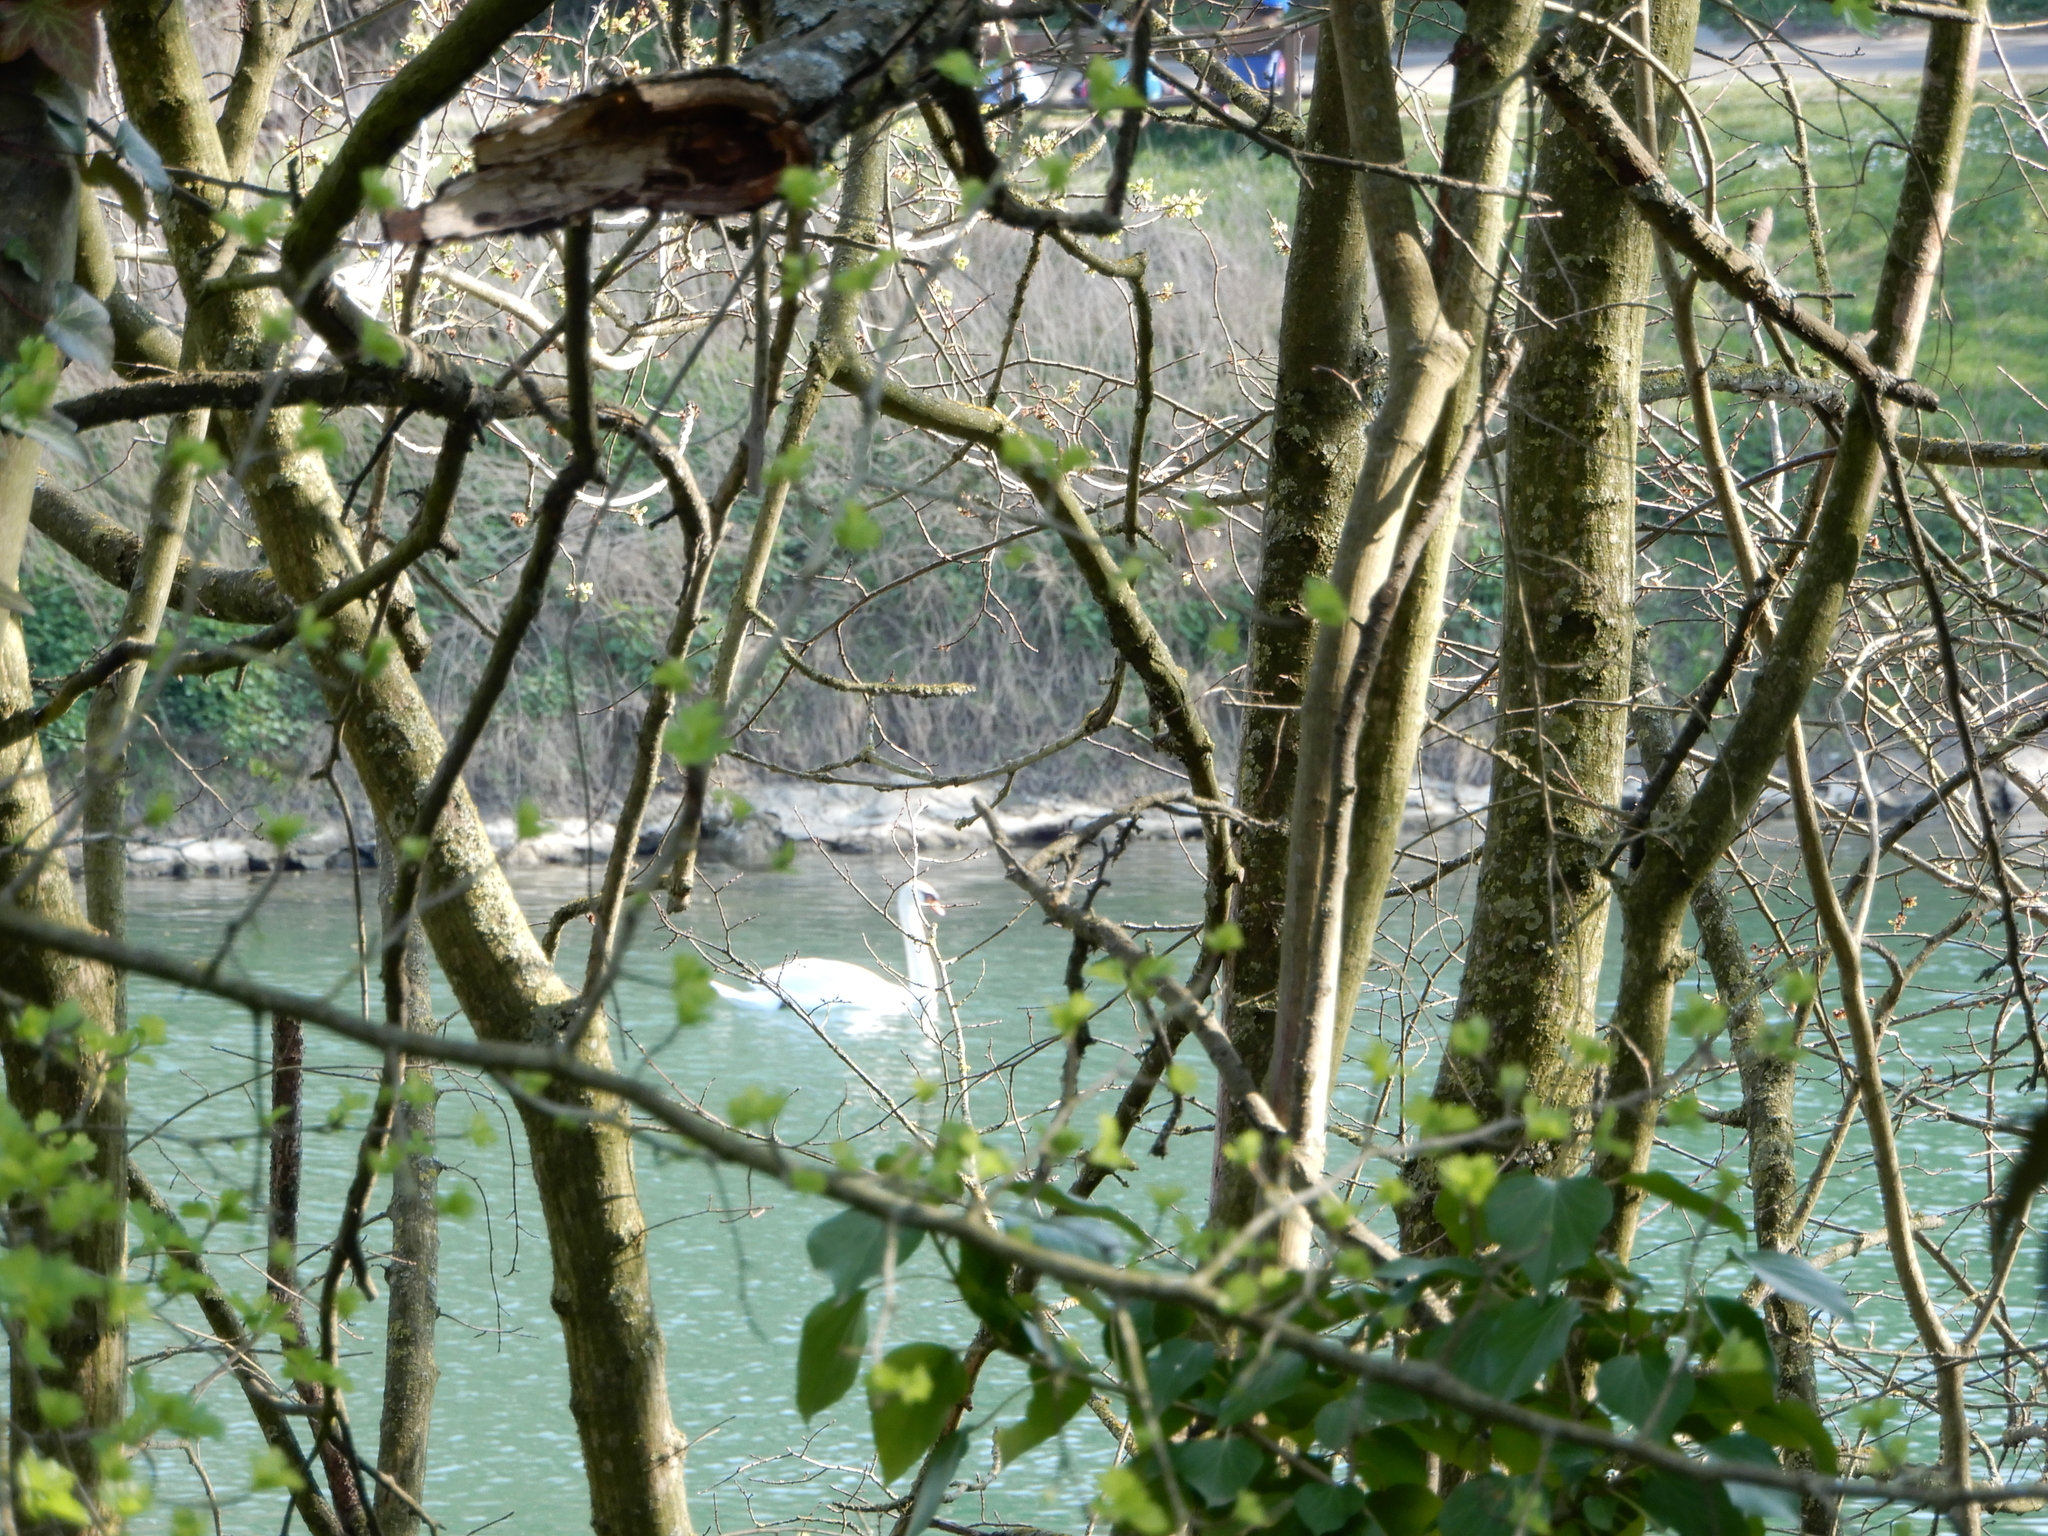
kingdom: Animalia
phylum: Chordata
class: Aves
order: Anseriformes
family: Anatidae
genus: Cygnus
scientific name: Cygnus olor
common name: Mute swan
